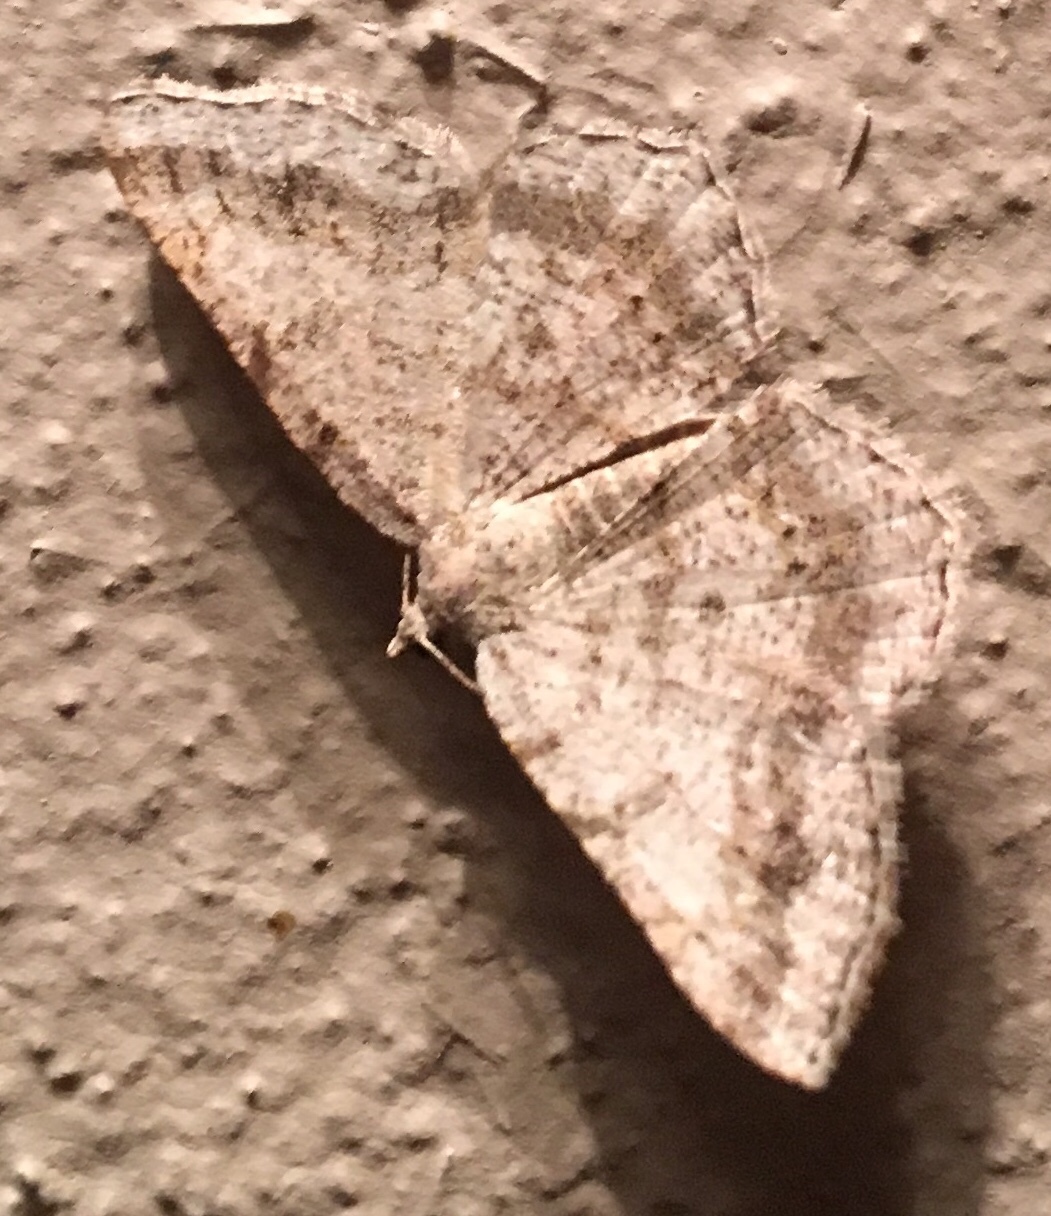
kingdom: Animalia
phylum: Arthropoda
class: Insecta
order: Lepidoptera
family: Geometridae
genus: Digrammia
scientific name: Digrammia ocellinata
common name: Faint-spotted angle
